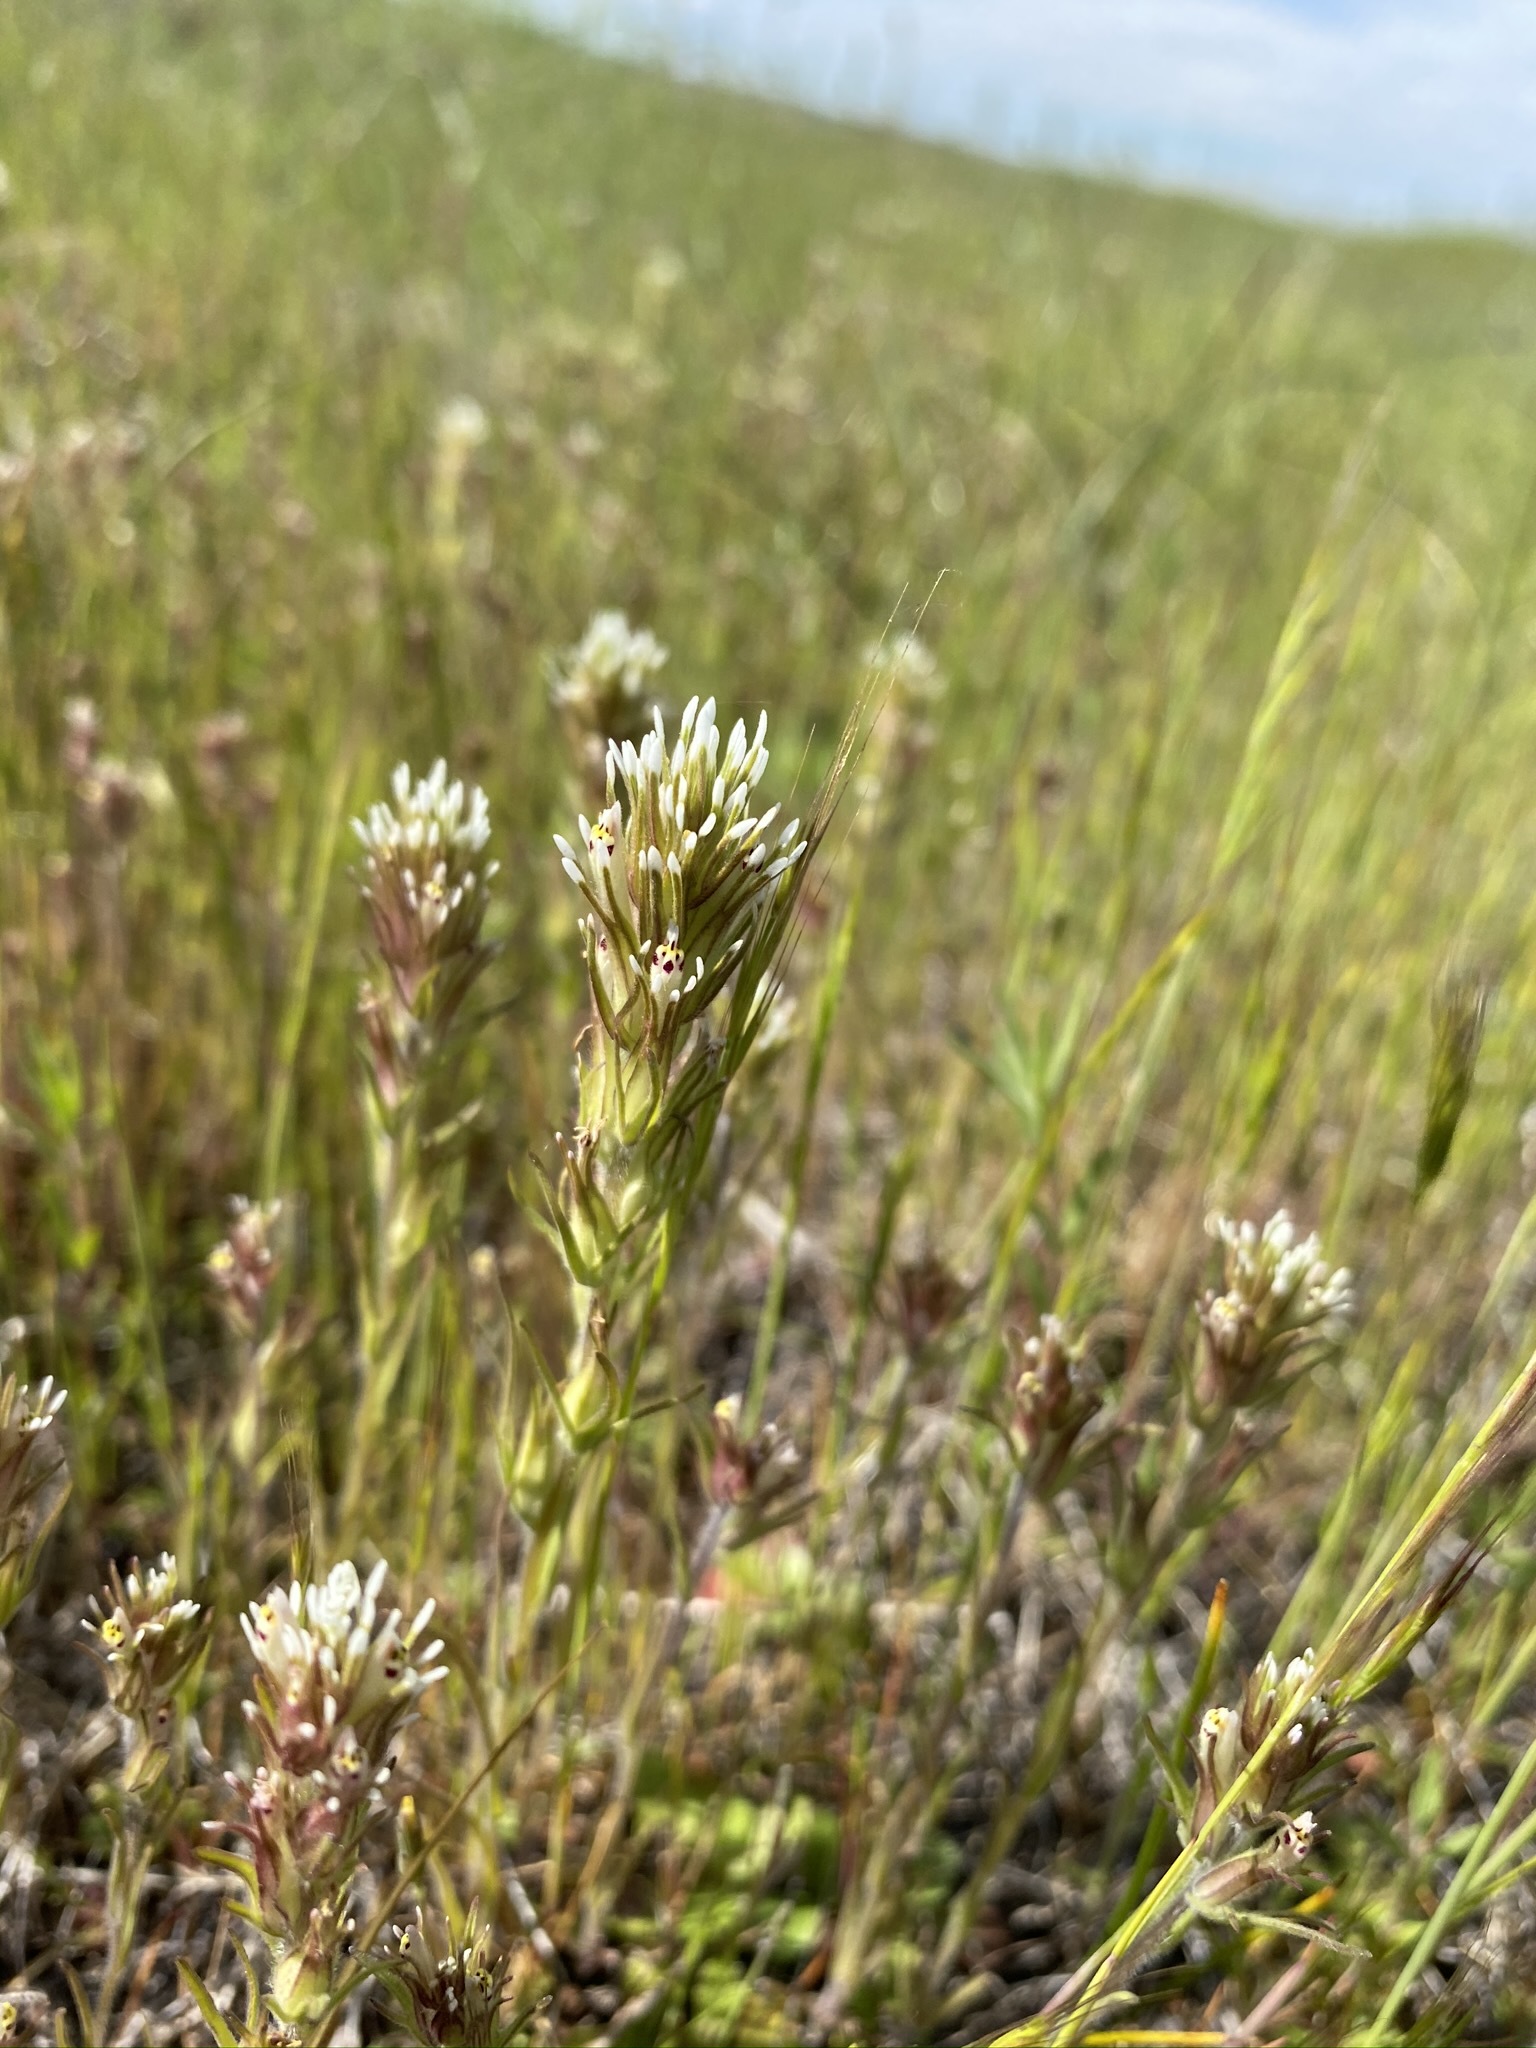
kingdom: Plantae
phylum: Tracheophyta
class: Magnoliopsida
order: Lamiales
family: Orobanchaceae
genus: Castilleja
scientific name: Castilleja attenuata
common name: Valley tassels
